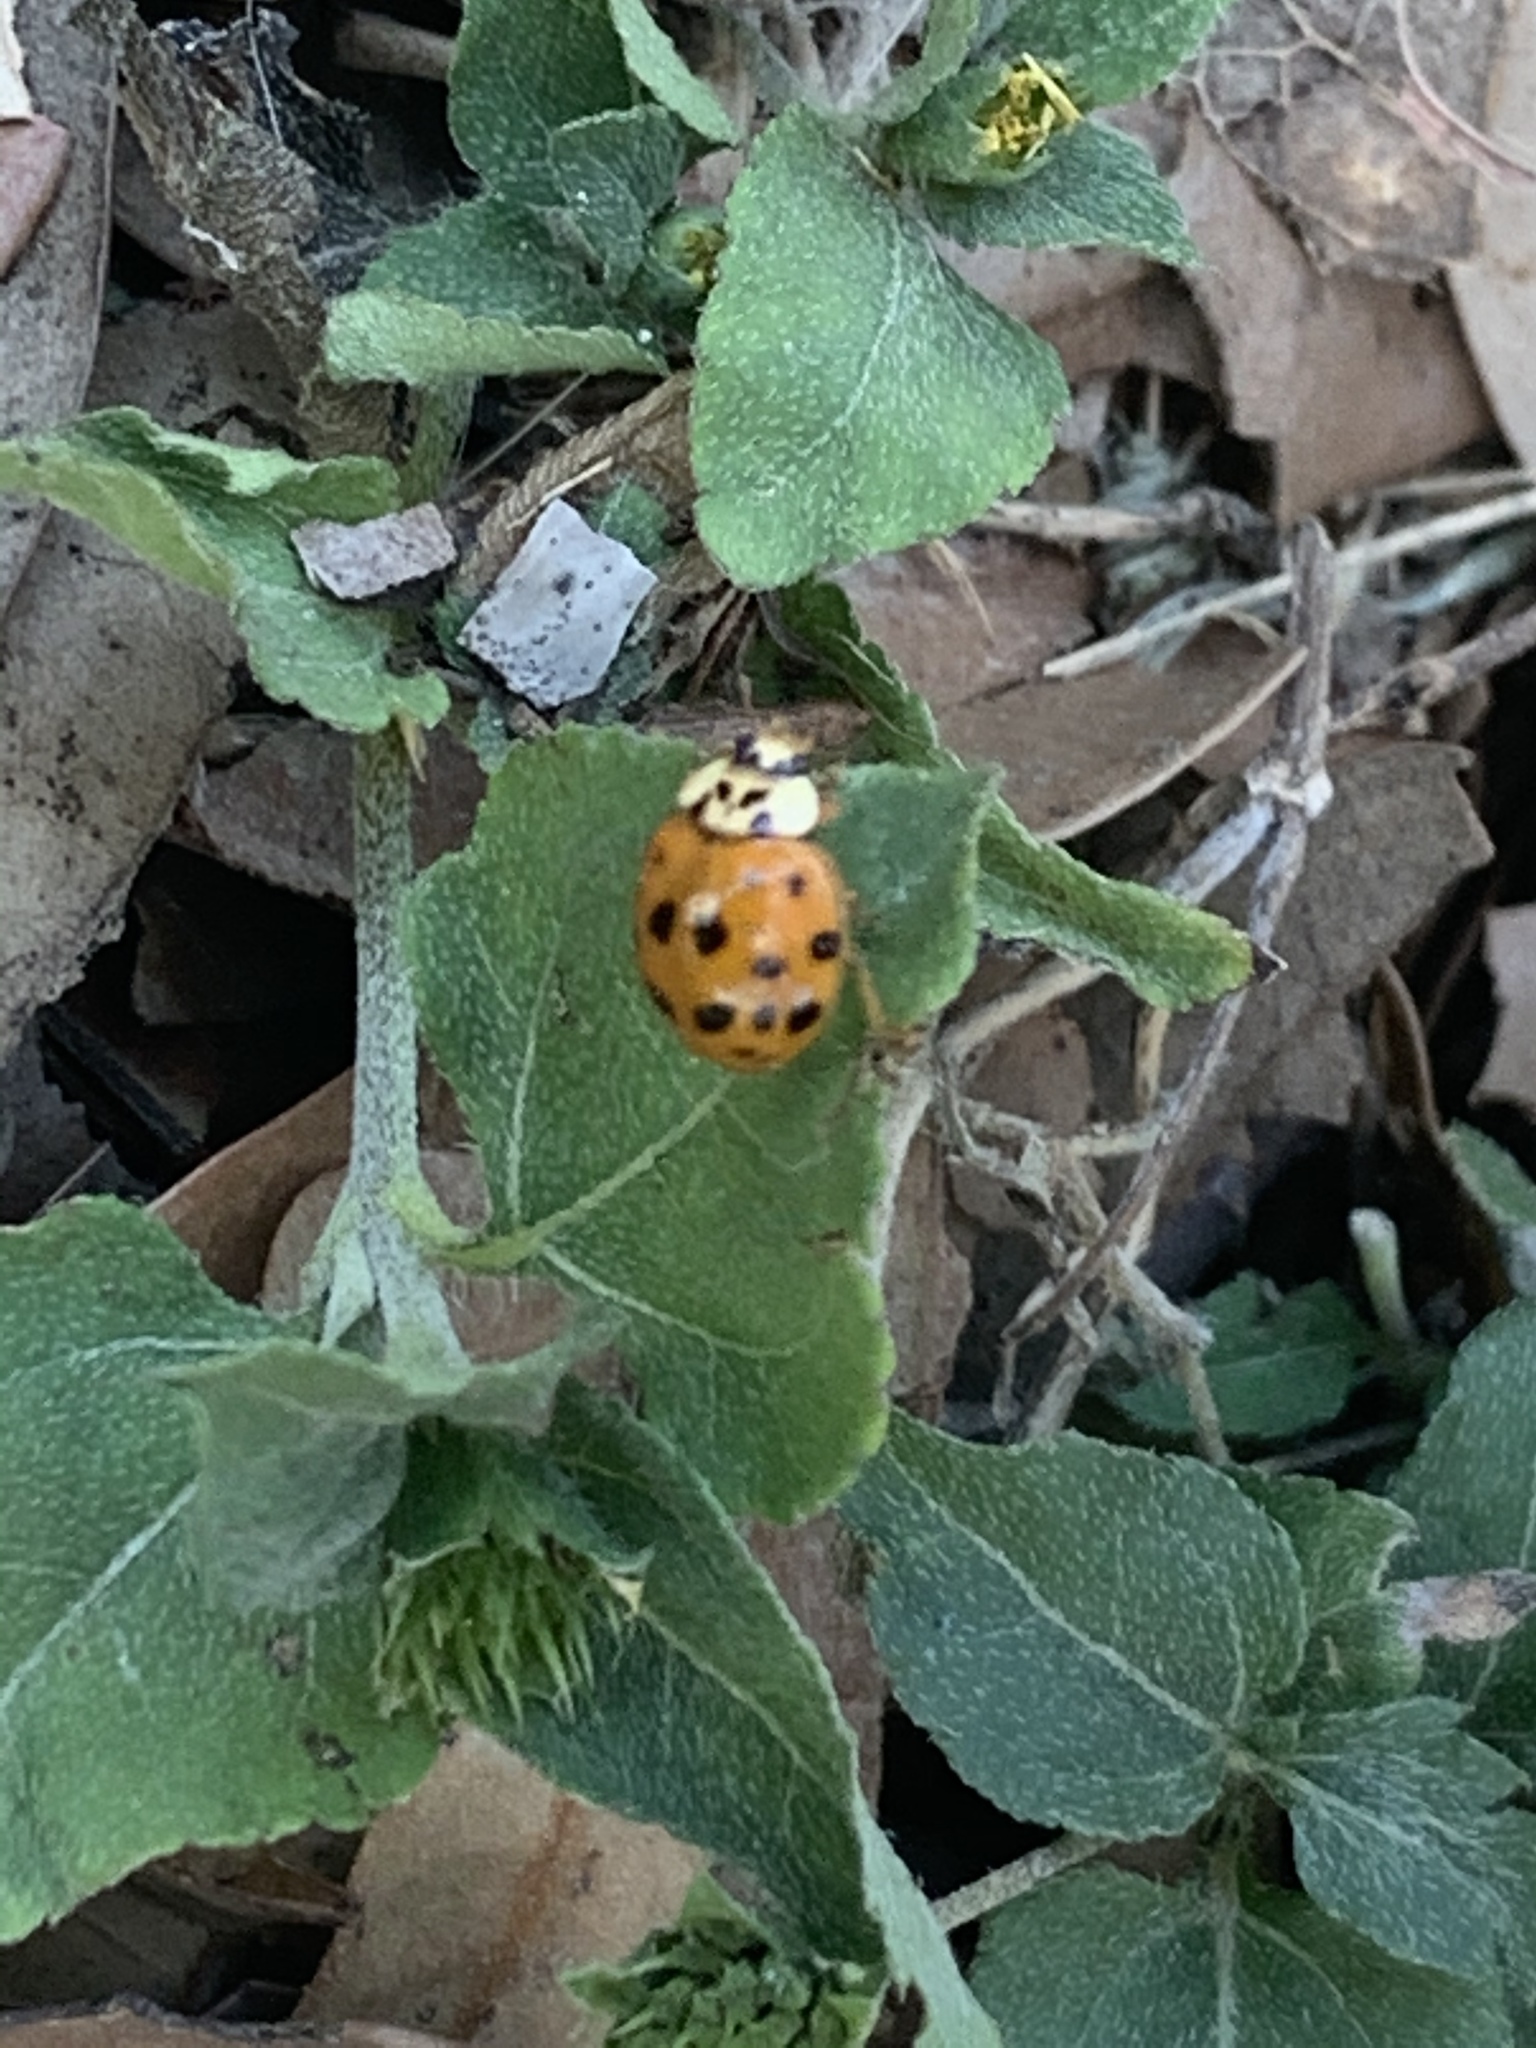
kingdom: Animalia
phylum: Arthropoda
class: Insecta
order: Coleoptera
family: Coccinellidae
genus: Harmonia
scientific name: Harmonia axyridis
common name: Harlequin ladybird
